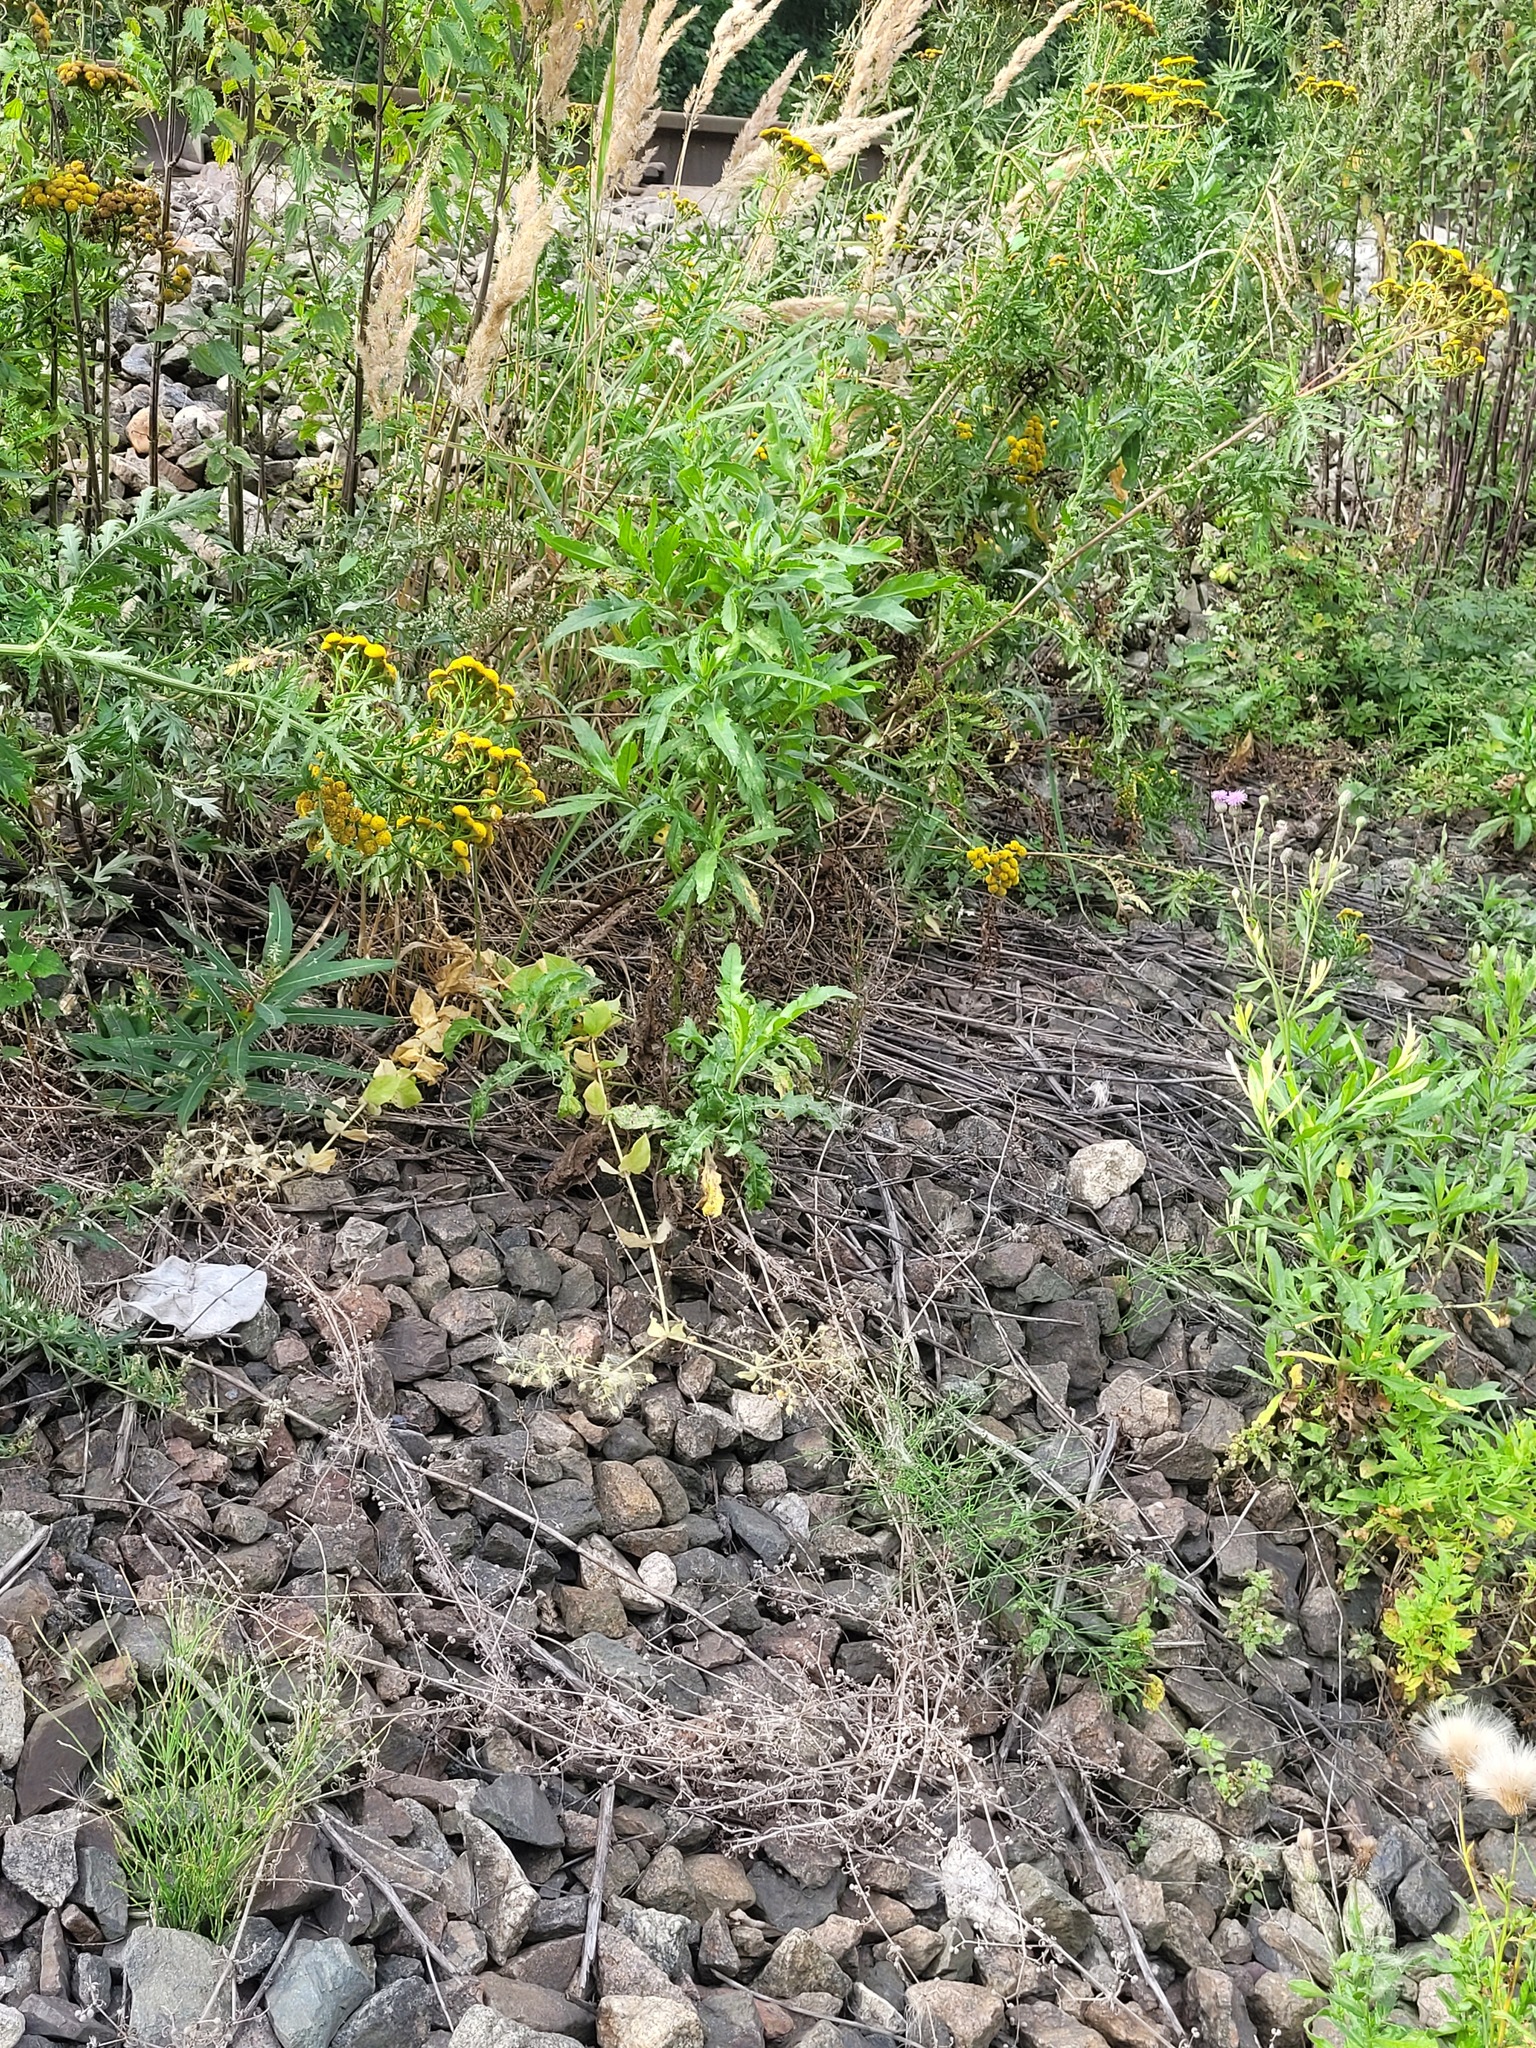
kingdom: Plantae
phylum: Tracheophyta
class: Magnoliopsida
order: Asterales
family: Asteraceae
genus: Cirsium
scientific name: Cirsium arvense
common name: Creeping thistle
